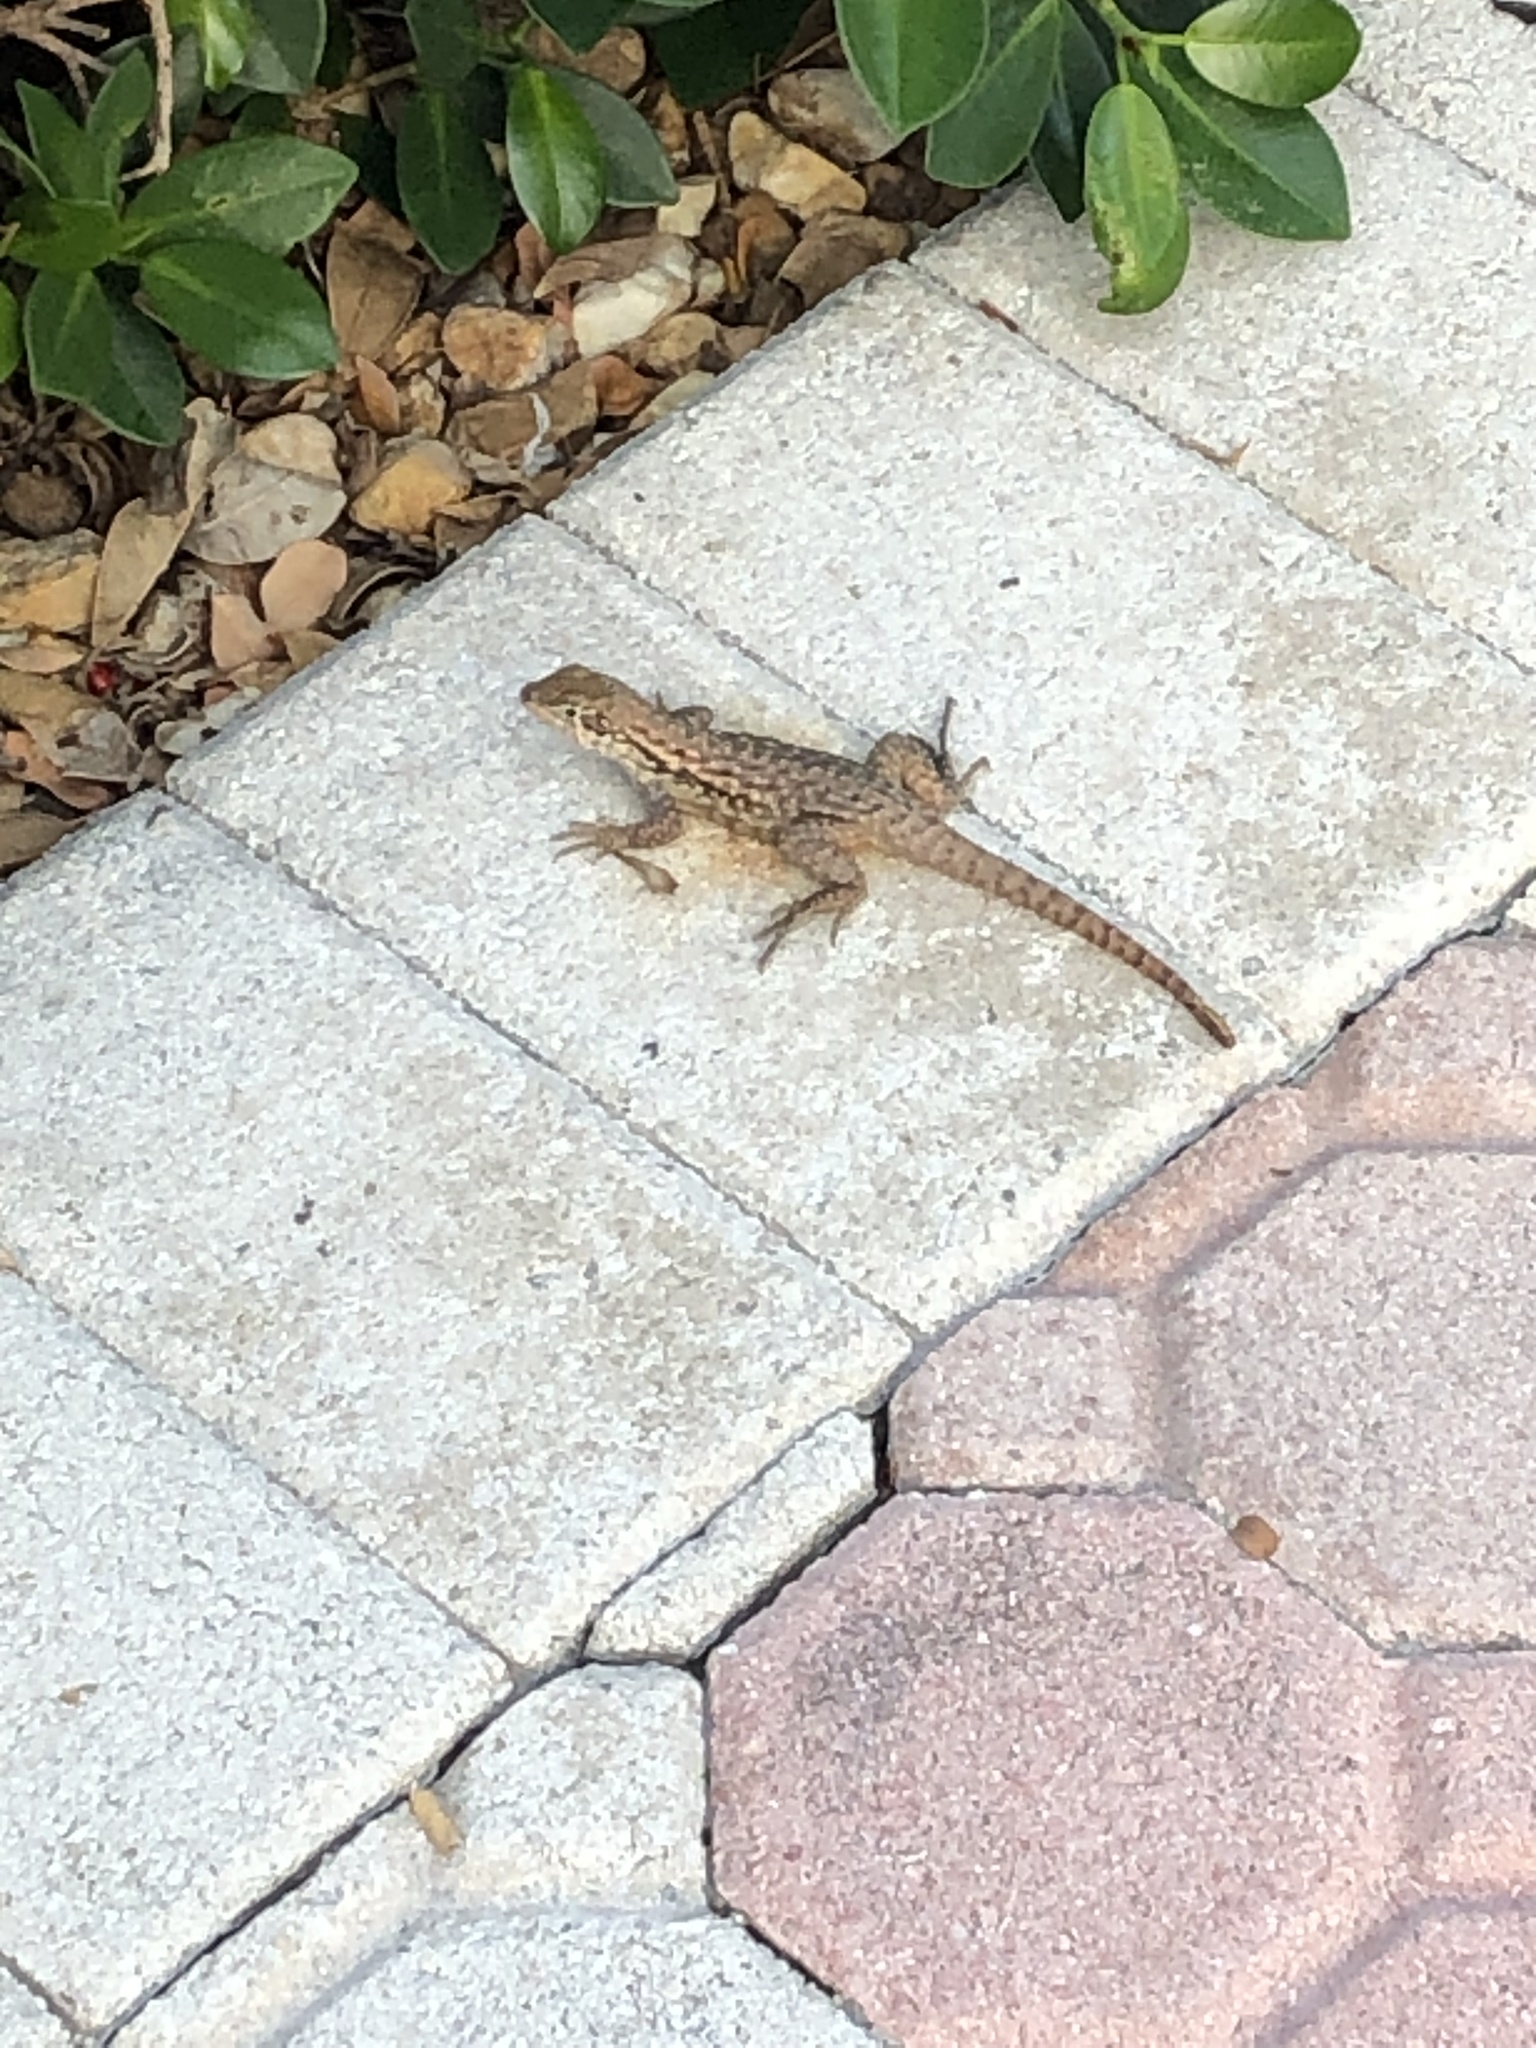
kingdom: Animalia
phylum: Chordata
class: Squamata
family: Leiocephalidae
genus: Leiocephalus
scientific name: Leiocephalus carinatus
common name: Northern curly-tailed lizard
